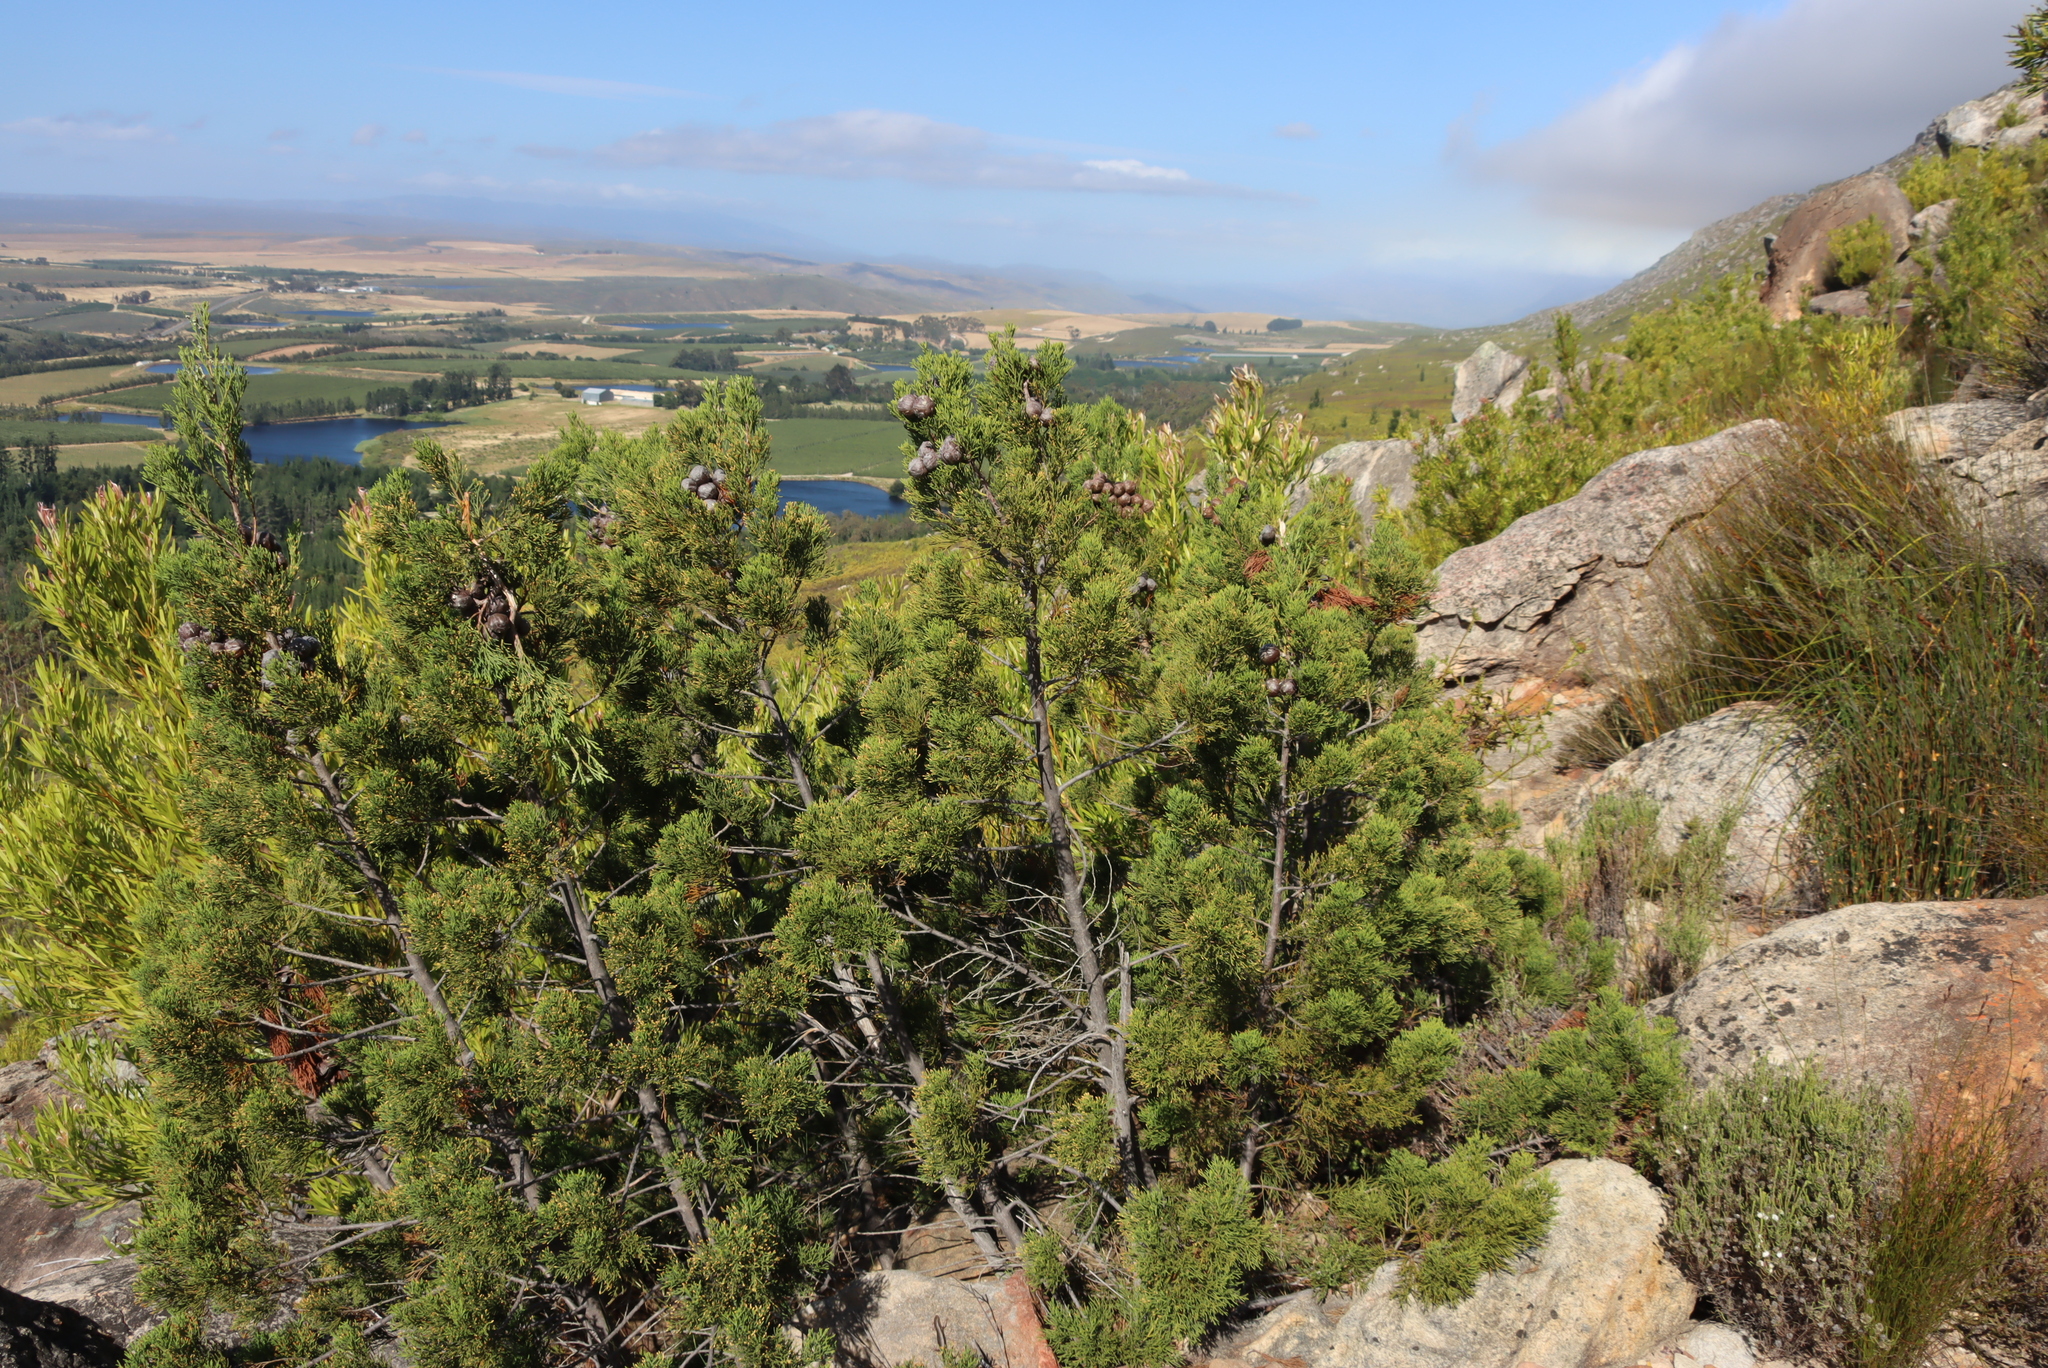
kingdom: Plantae
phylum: Tracheophyta
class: Pinopsida
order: Pinales
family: Cupressaceae
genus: Widdringtonia
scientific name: Widdringtonia nodiflora
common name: Cape cypress
